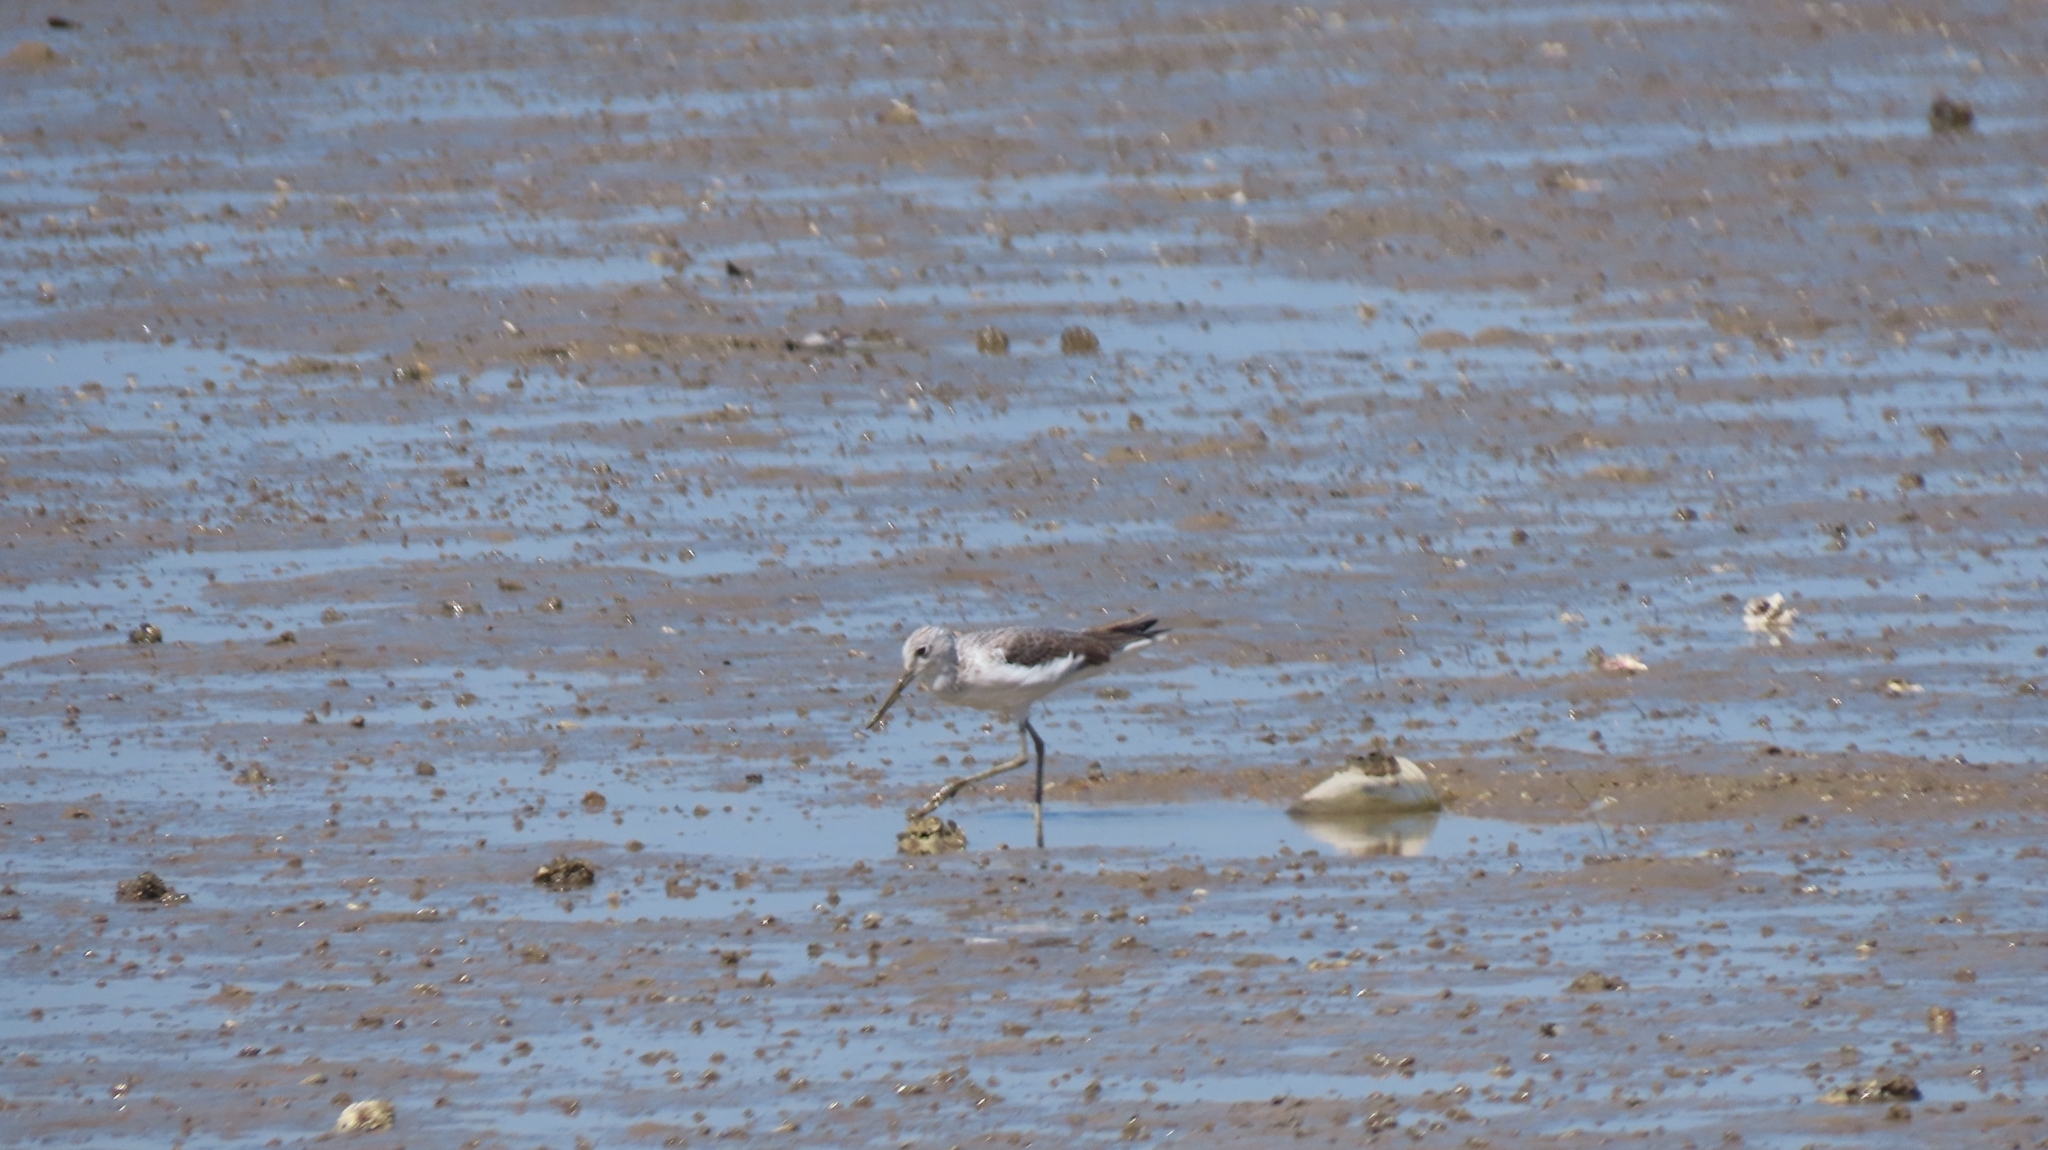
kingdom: Animalia
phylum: Chordata
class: Aves
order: Charadriiformes
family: Scolopacidae
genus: Tringa
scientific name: Tringa nebularia
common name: Common greenshank
